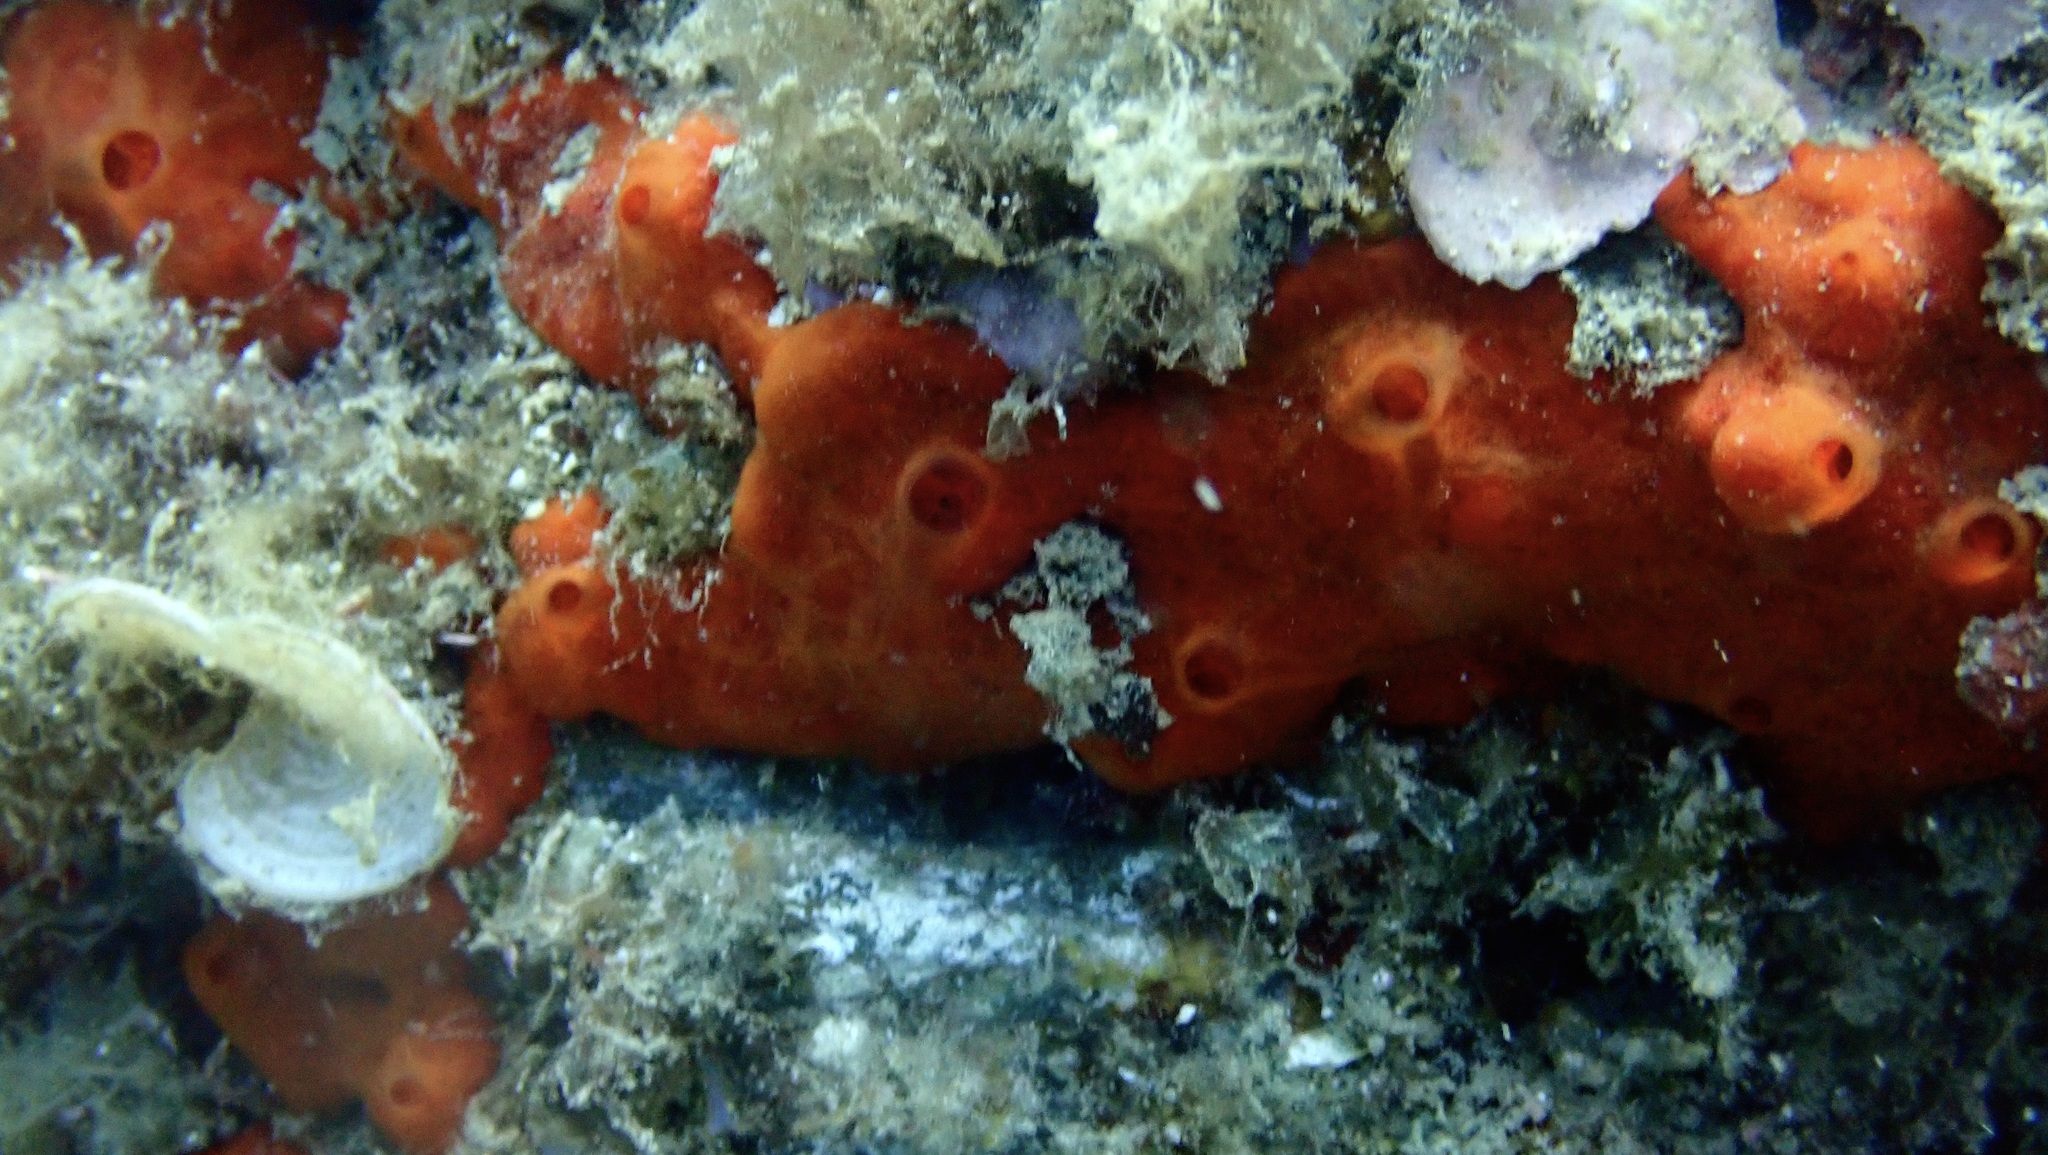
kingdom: Animalia
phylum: Porifera
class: Demospongiae
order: Poecilosclerida
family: Crambeidae
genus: Crambe
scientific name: Crambe crambe
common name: Orange-red encrusting sponge
